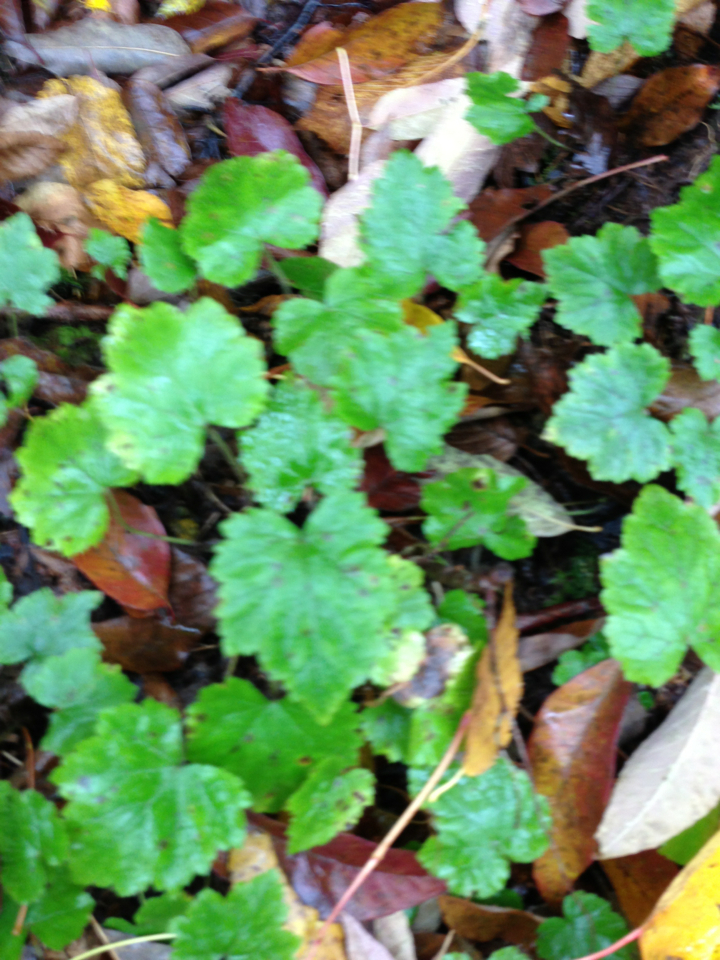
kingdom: Plantae
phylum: Tracheophyta
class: Magnoliopsida
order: Saxifragales
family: Saxifragaceae
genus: Tiarella
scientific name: Tiarella stolonifera
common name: Stoloniferous foamflower
